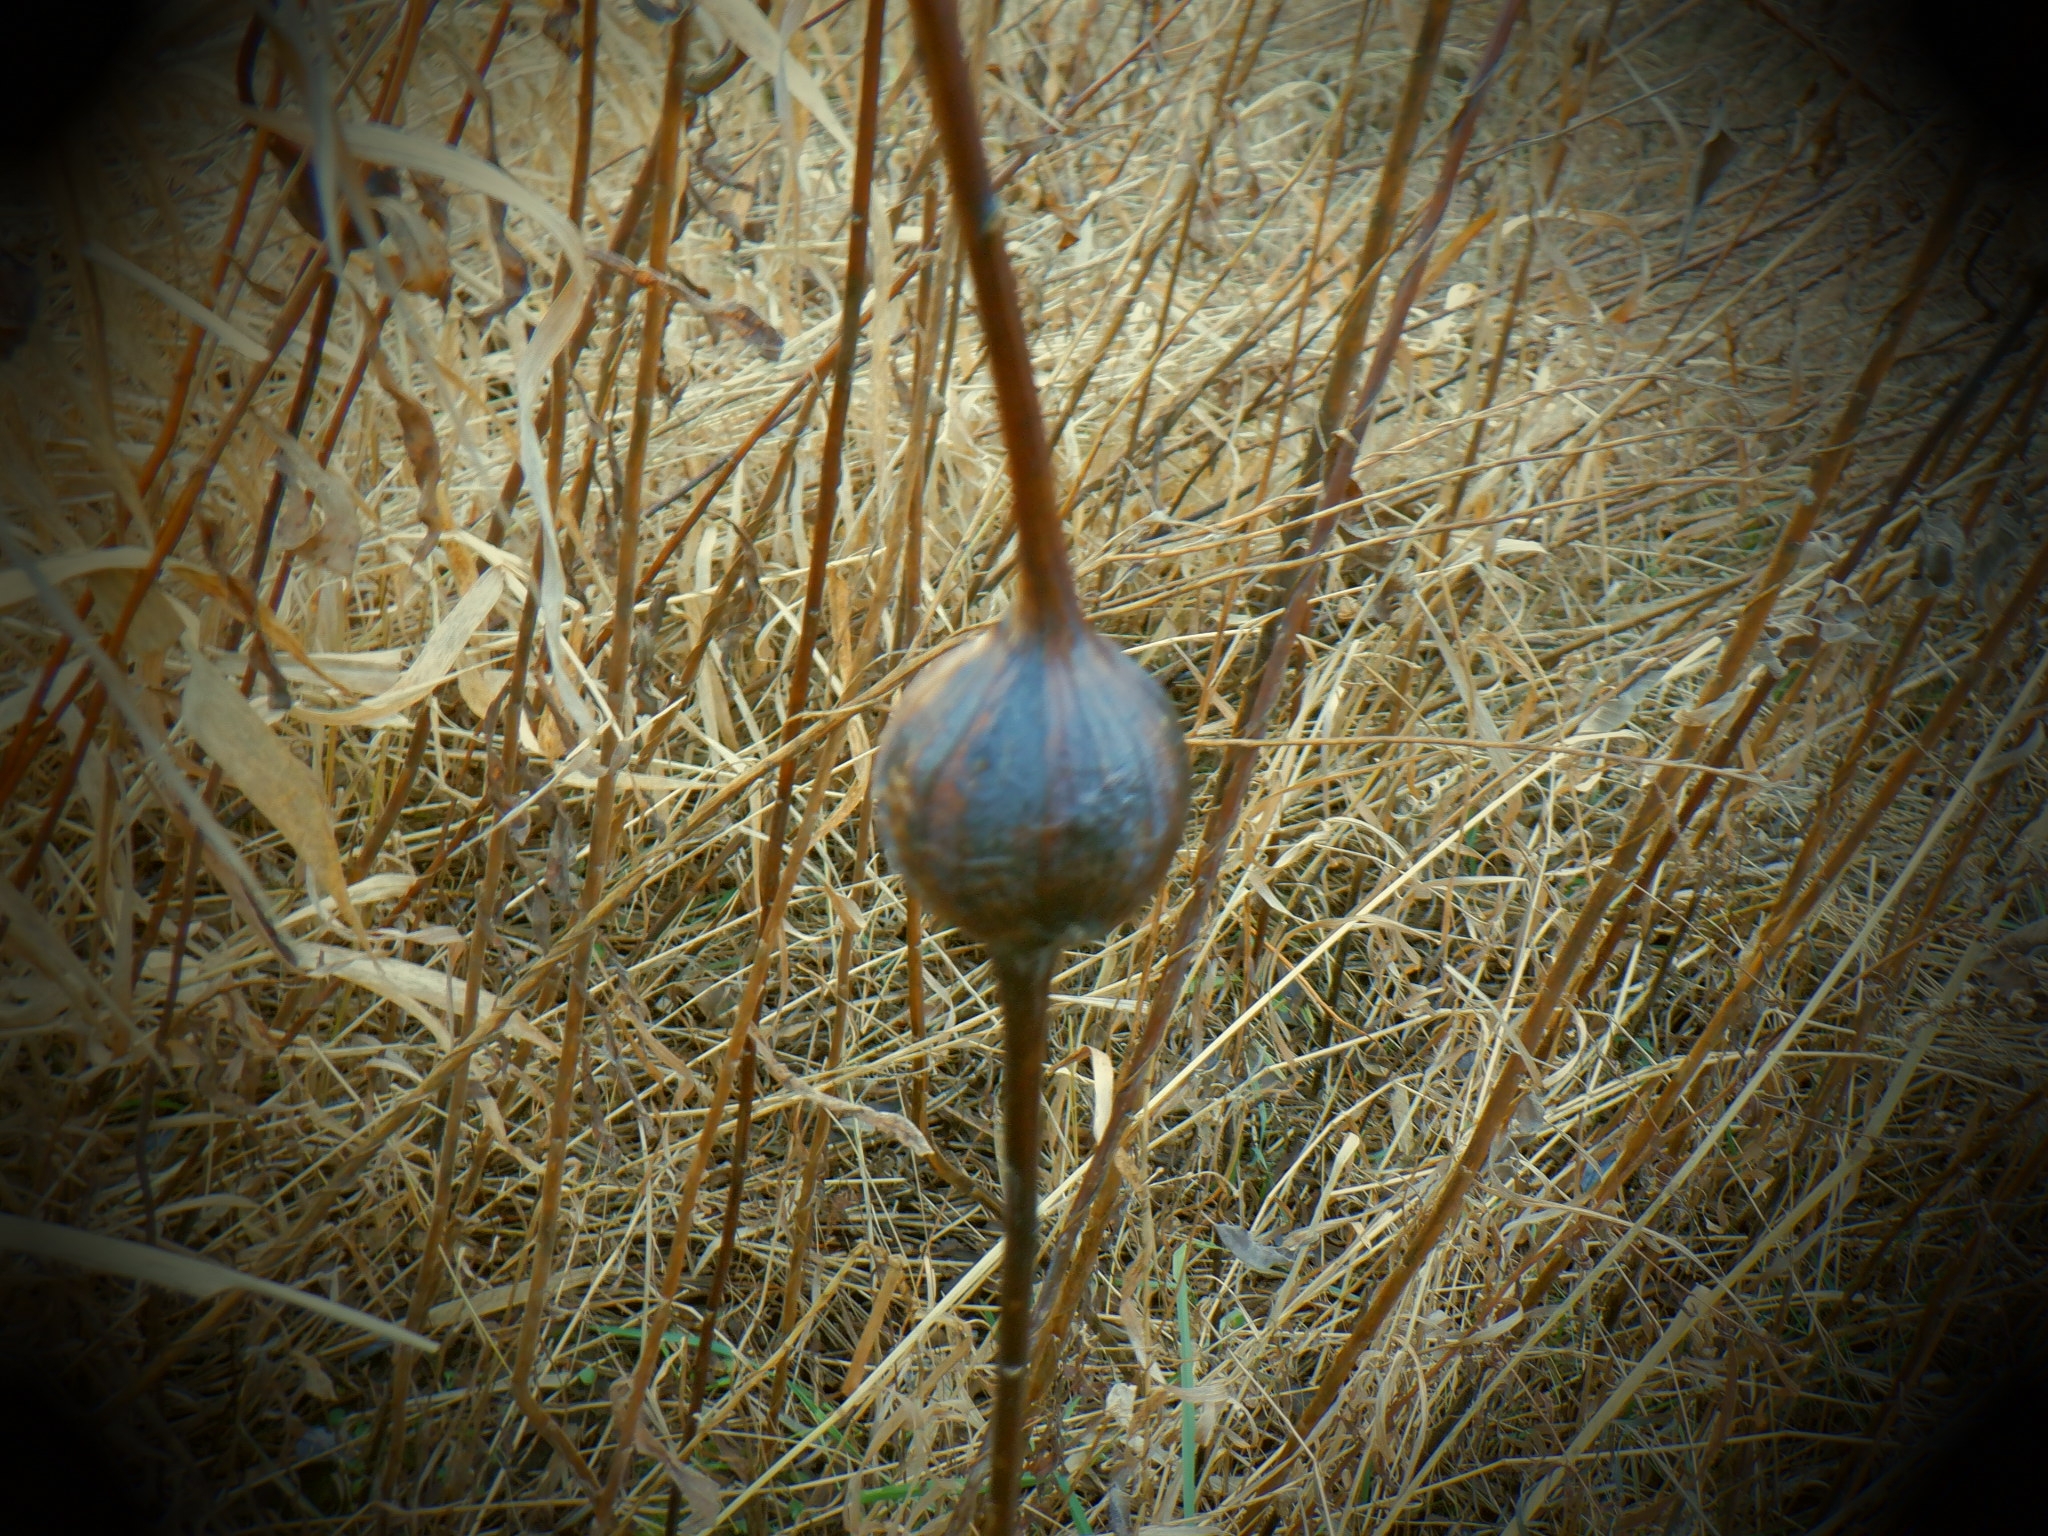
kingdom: Animalia
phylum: Arthropoda
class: Insecta
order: Diptera
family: Tephritidae
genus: Eurosta
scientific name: Eurosta solidaginis
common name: Goldenrod gall fly
